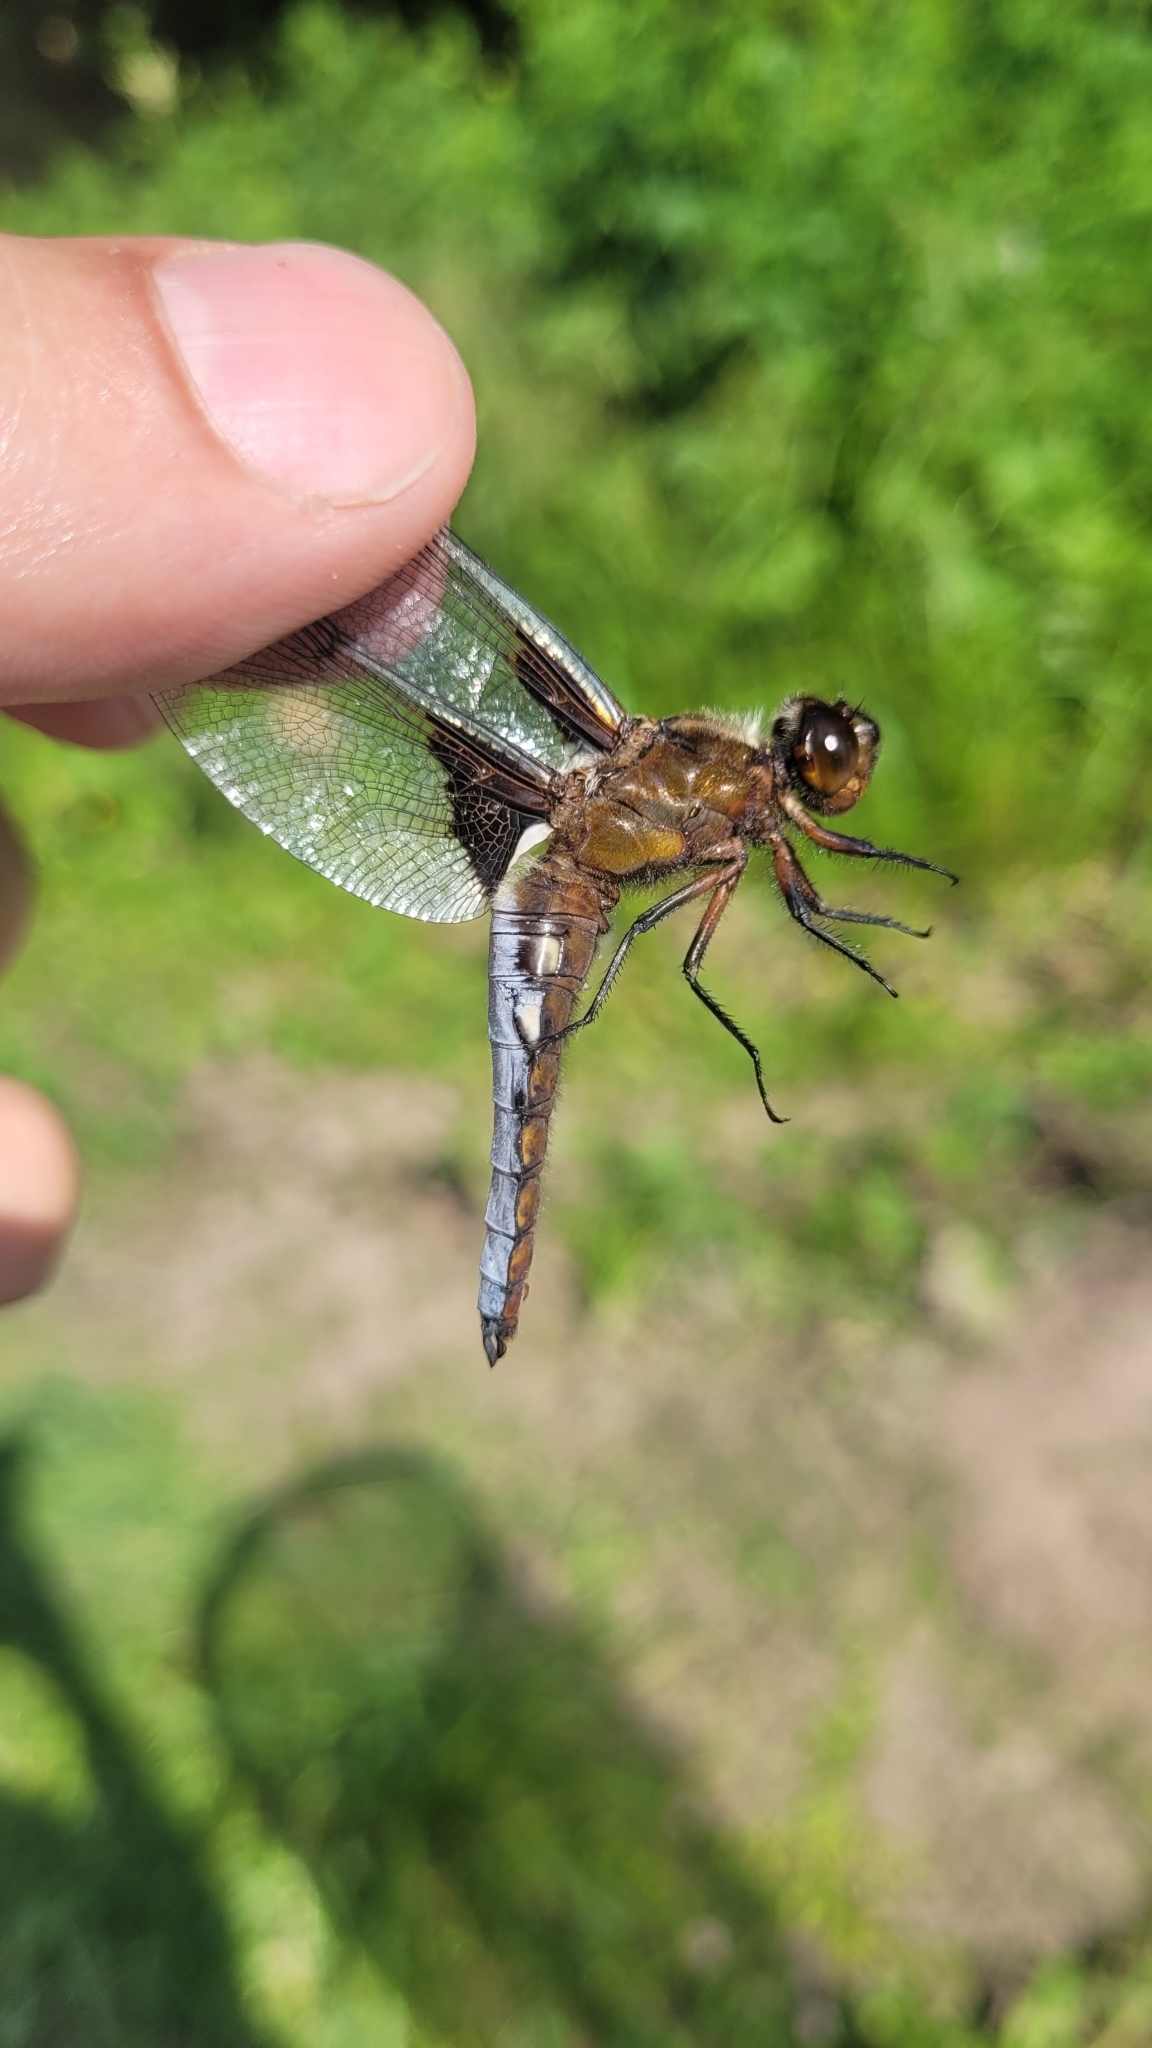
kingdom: Animalia
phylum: Arthropoda
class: Insecta
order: Odonata
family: Libellulidae
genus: Libellula
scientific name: Libellula depressa
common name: Broad-bodied chaser
